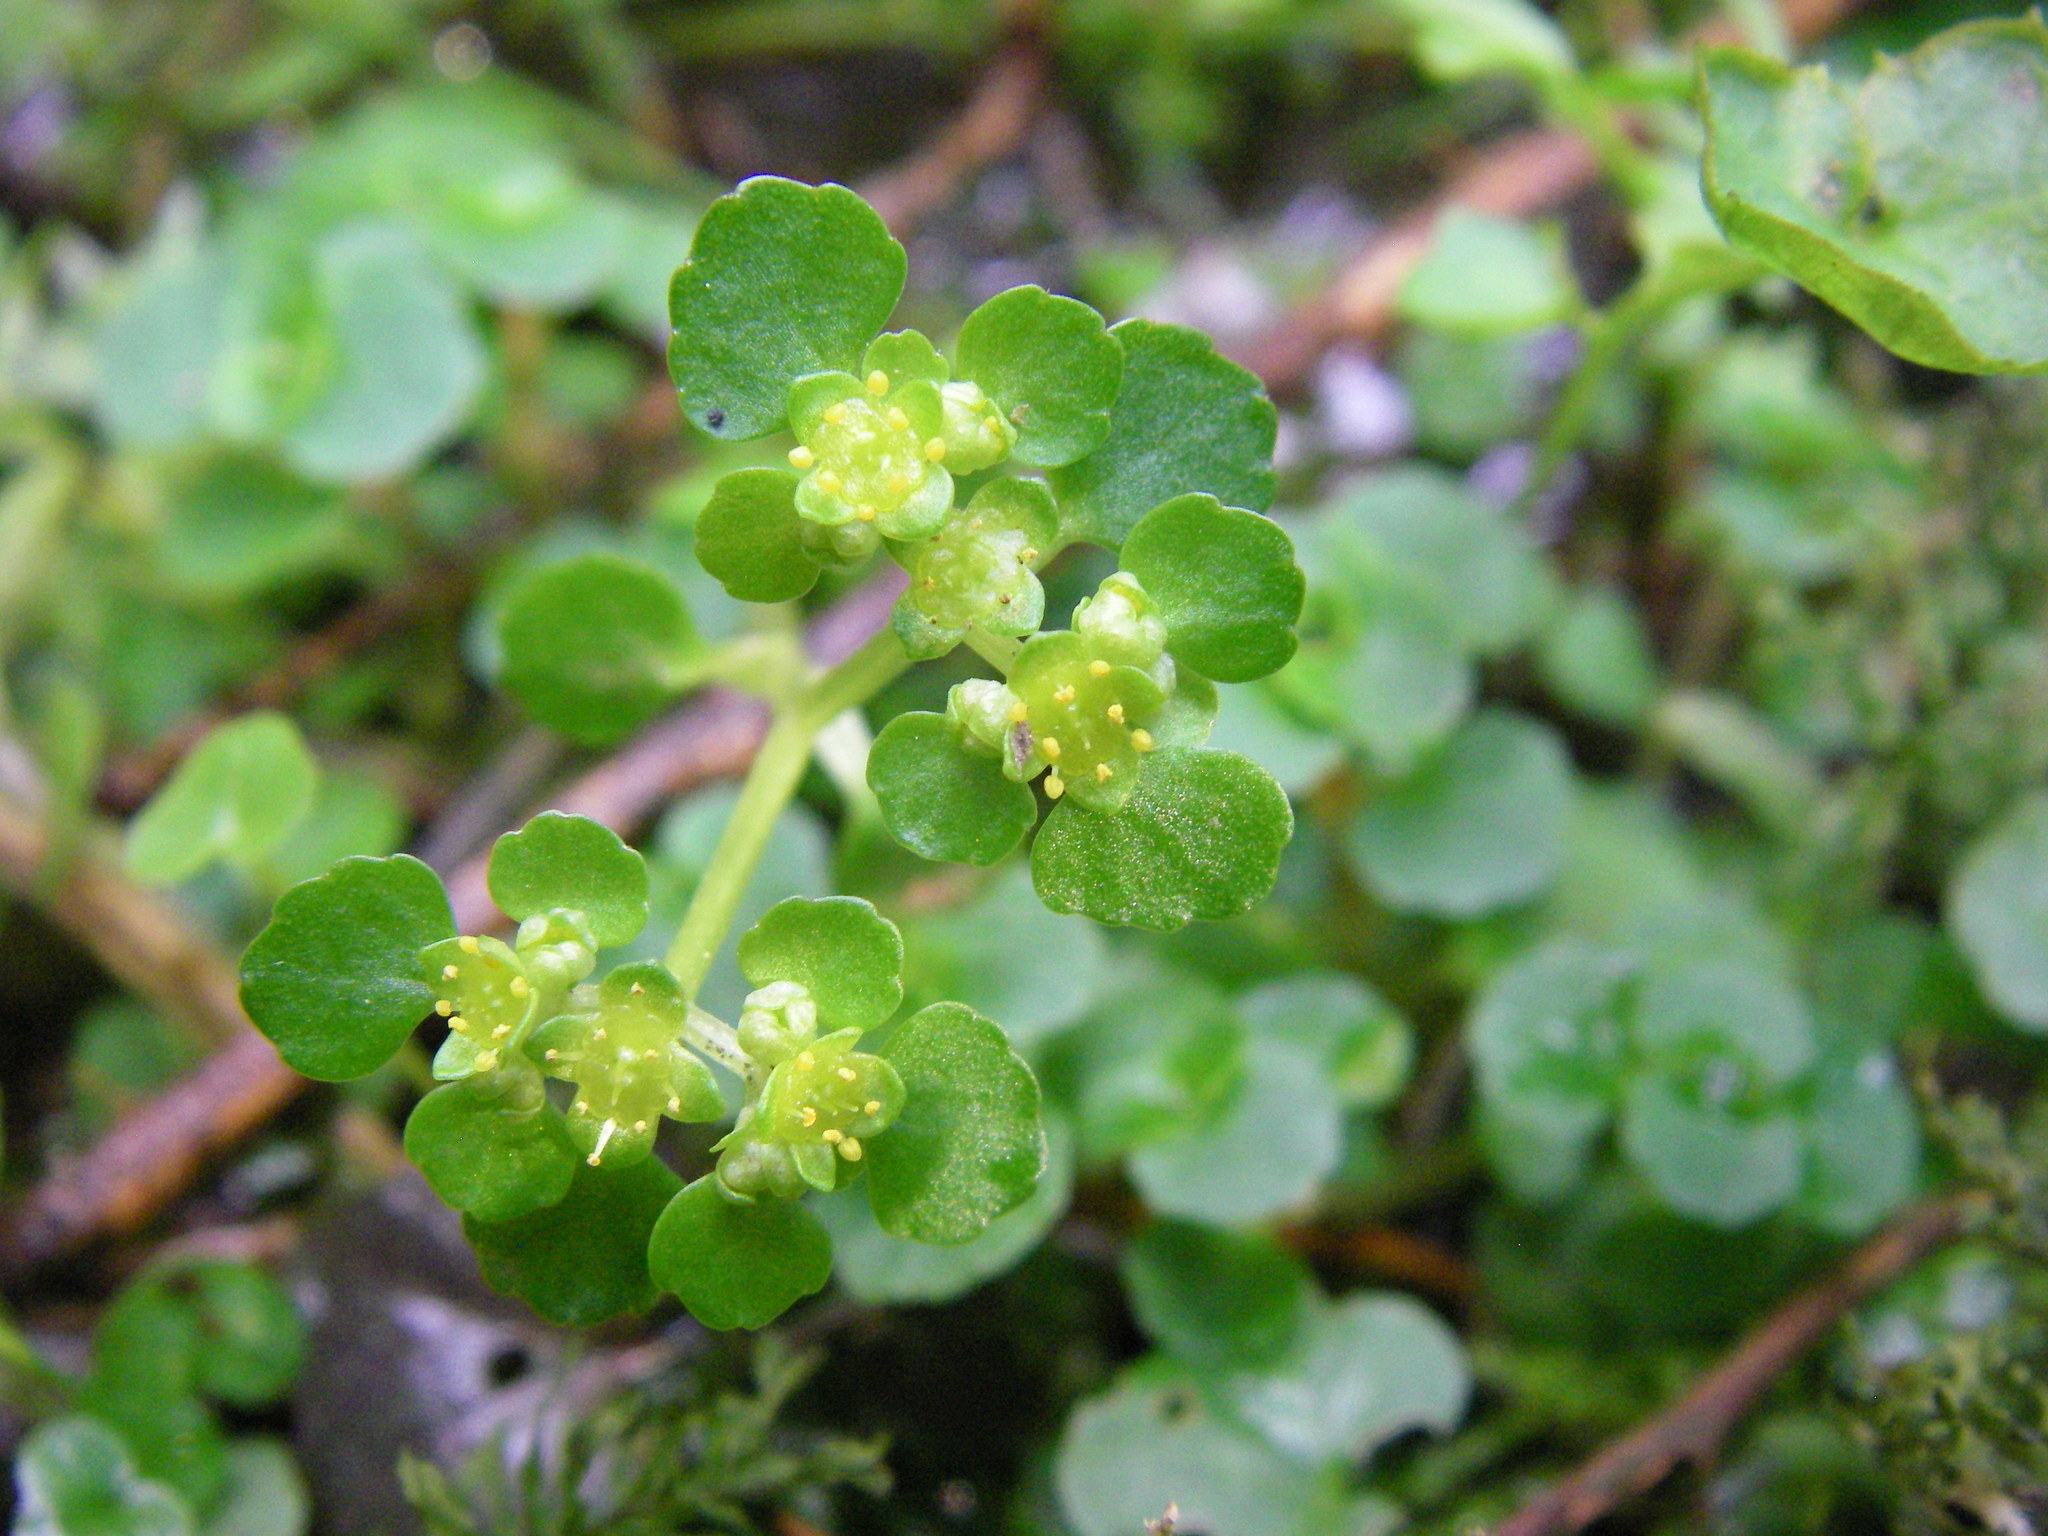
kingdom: Plantae
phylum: Tracheophyta
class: Magnoliopsida
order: Saxifragales
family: Saxifragaceae
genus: Chrysosplenium
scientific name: Chrysosplenium oppositifolium
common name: Opposite-leaved golden-saxifrage
